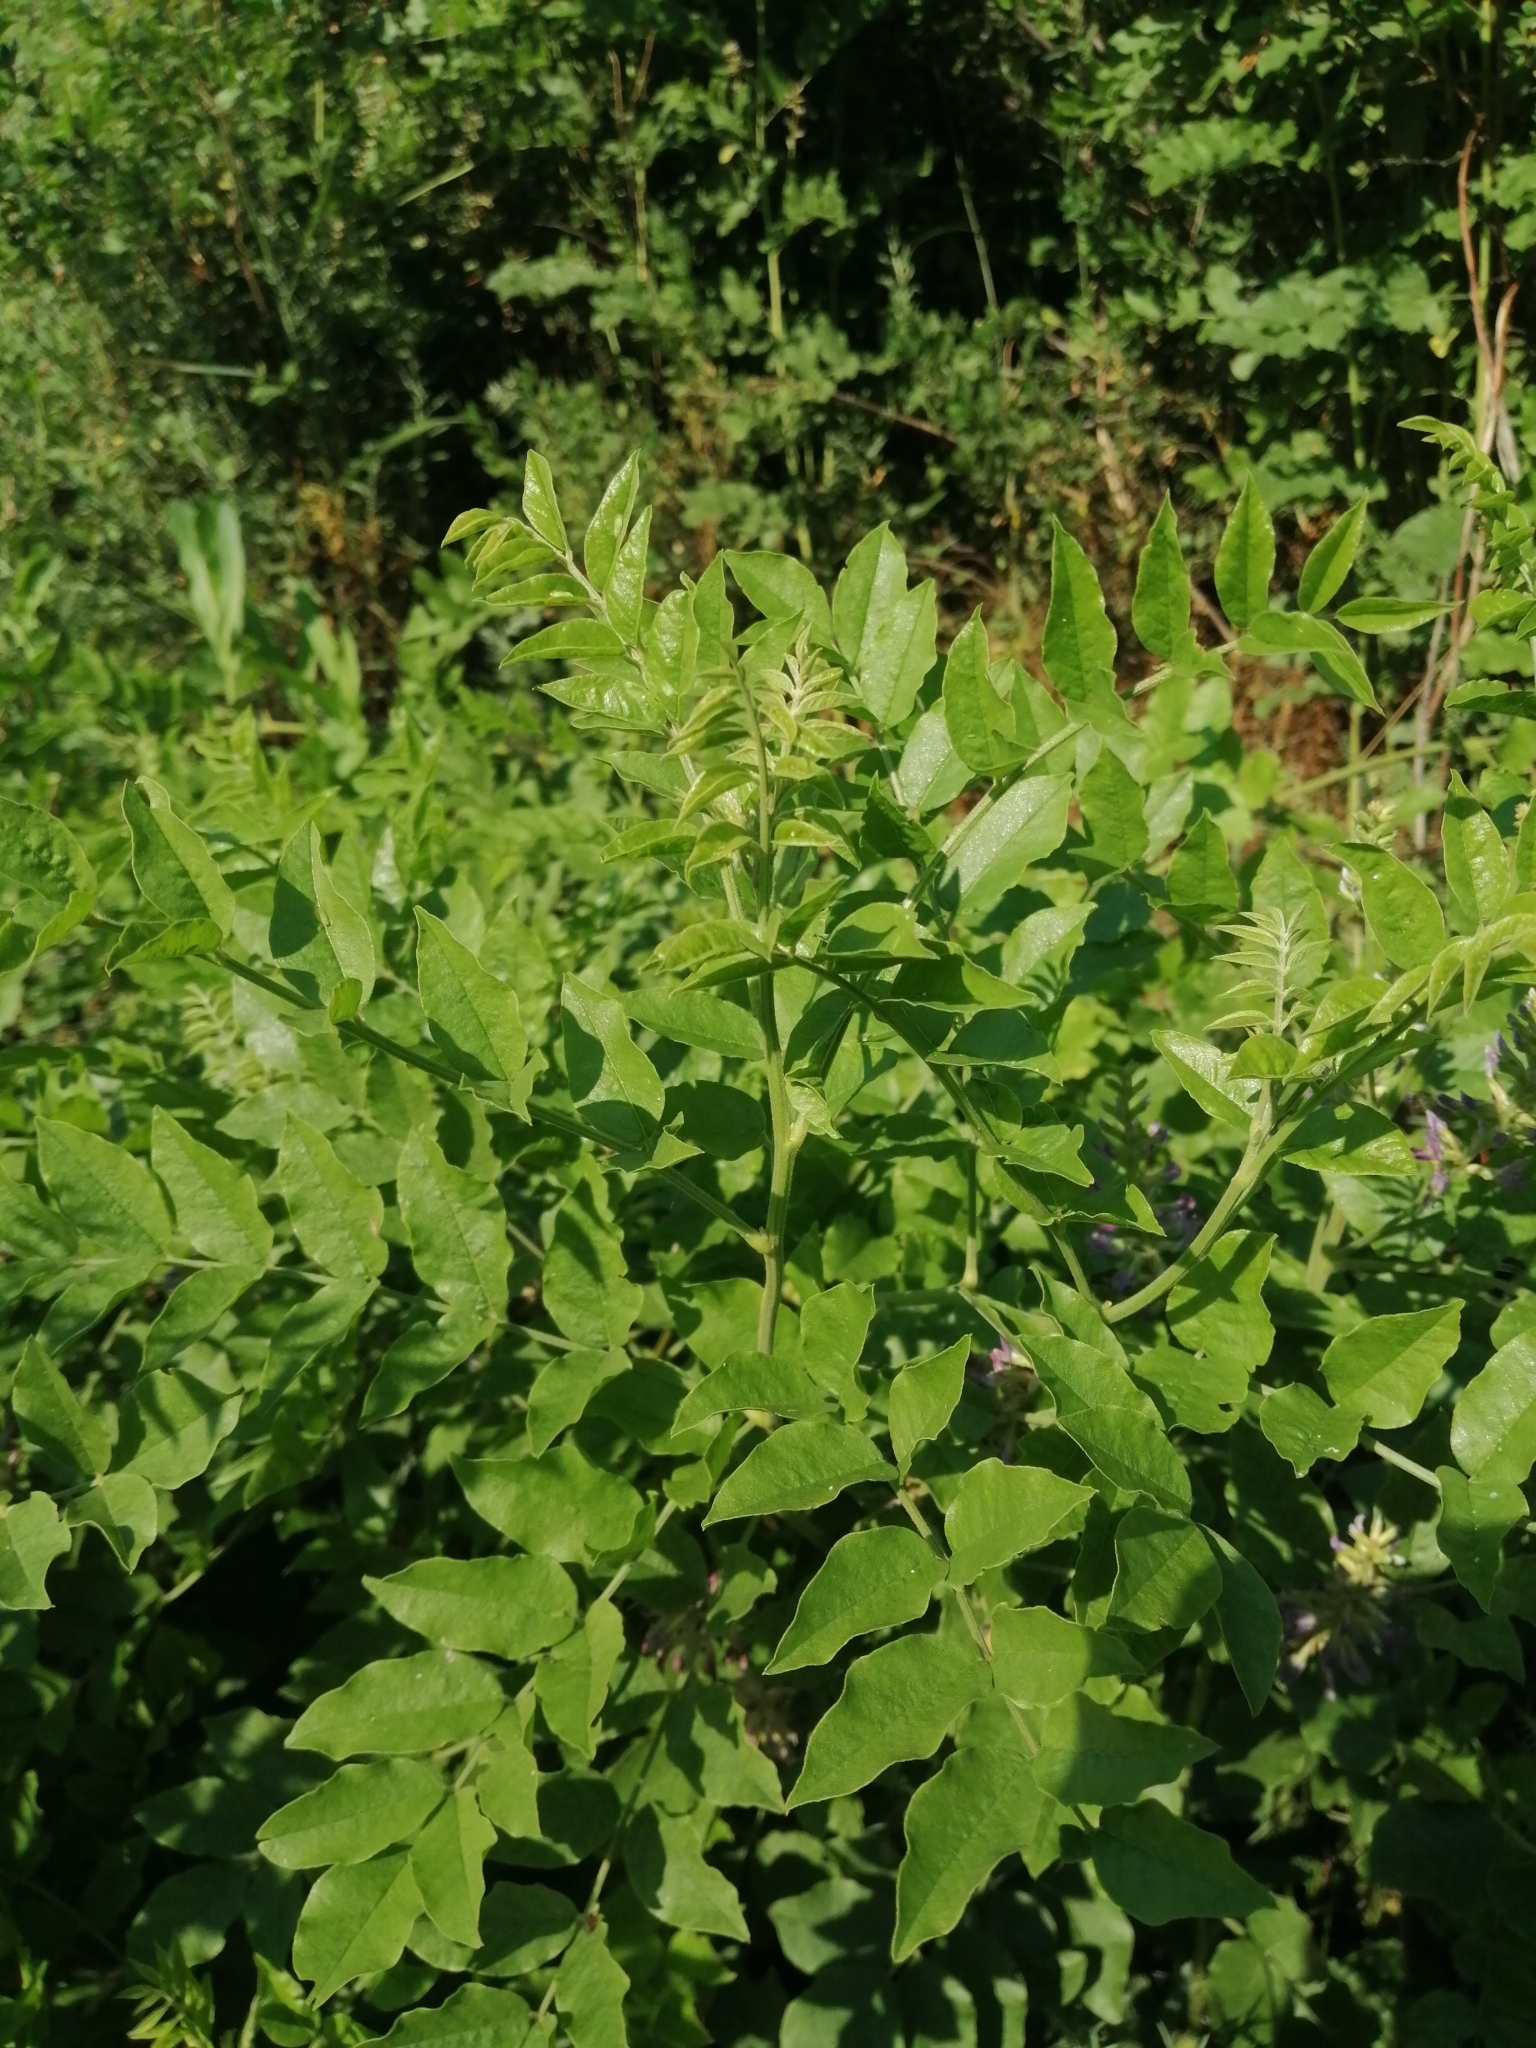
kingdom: Plantae
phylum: Tracheophyta
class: Magnoliopsida
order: Fabales
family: Fabaceae
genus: Glycyrrhiza
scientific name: Glycyrrhiza uralensis
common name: Chinese licorice
